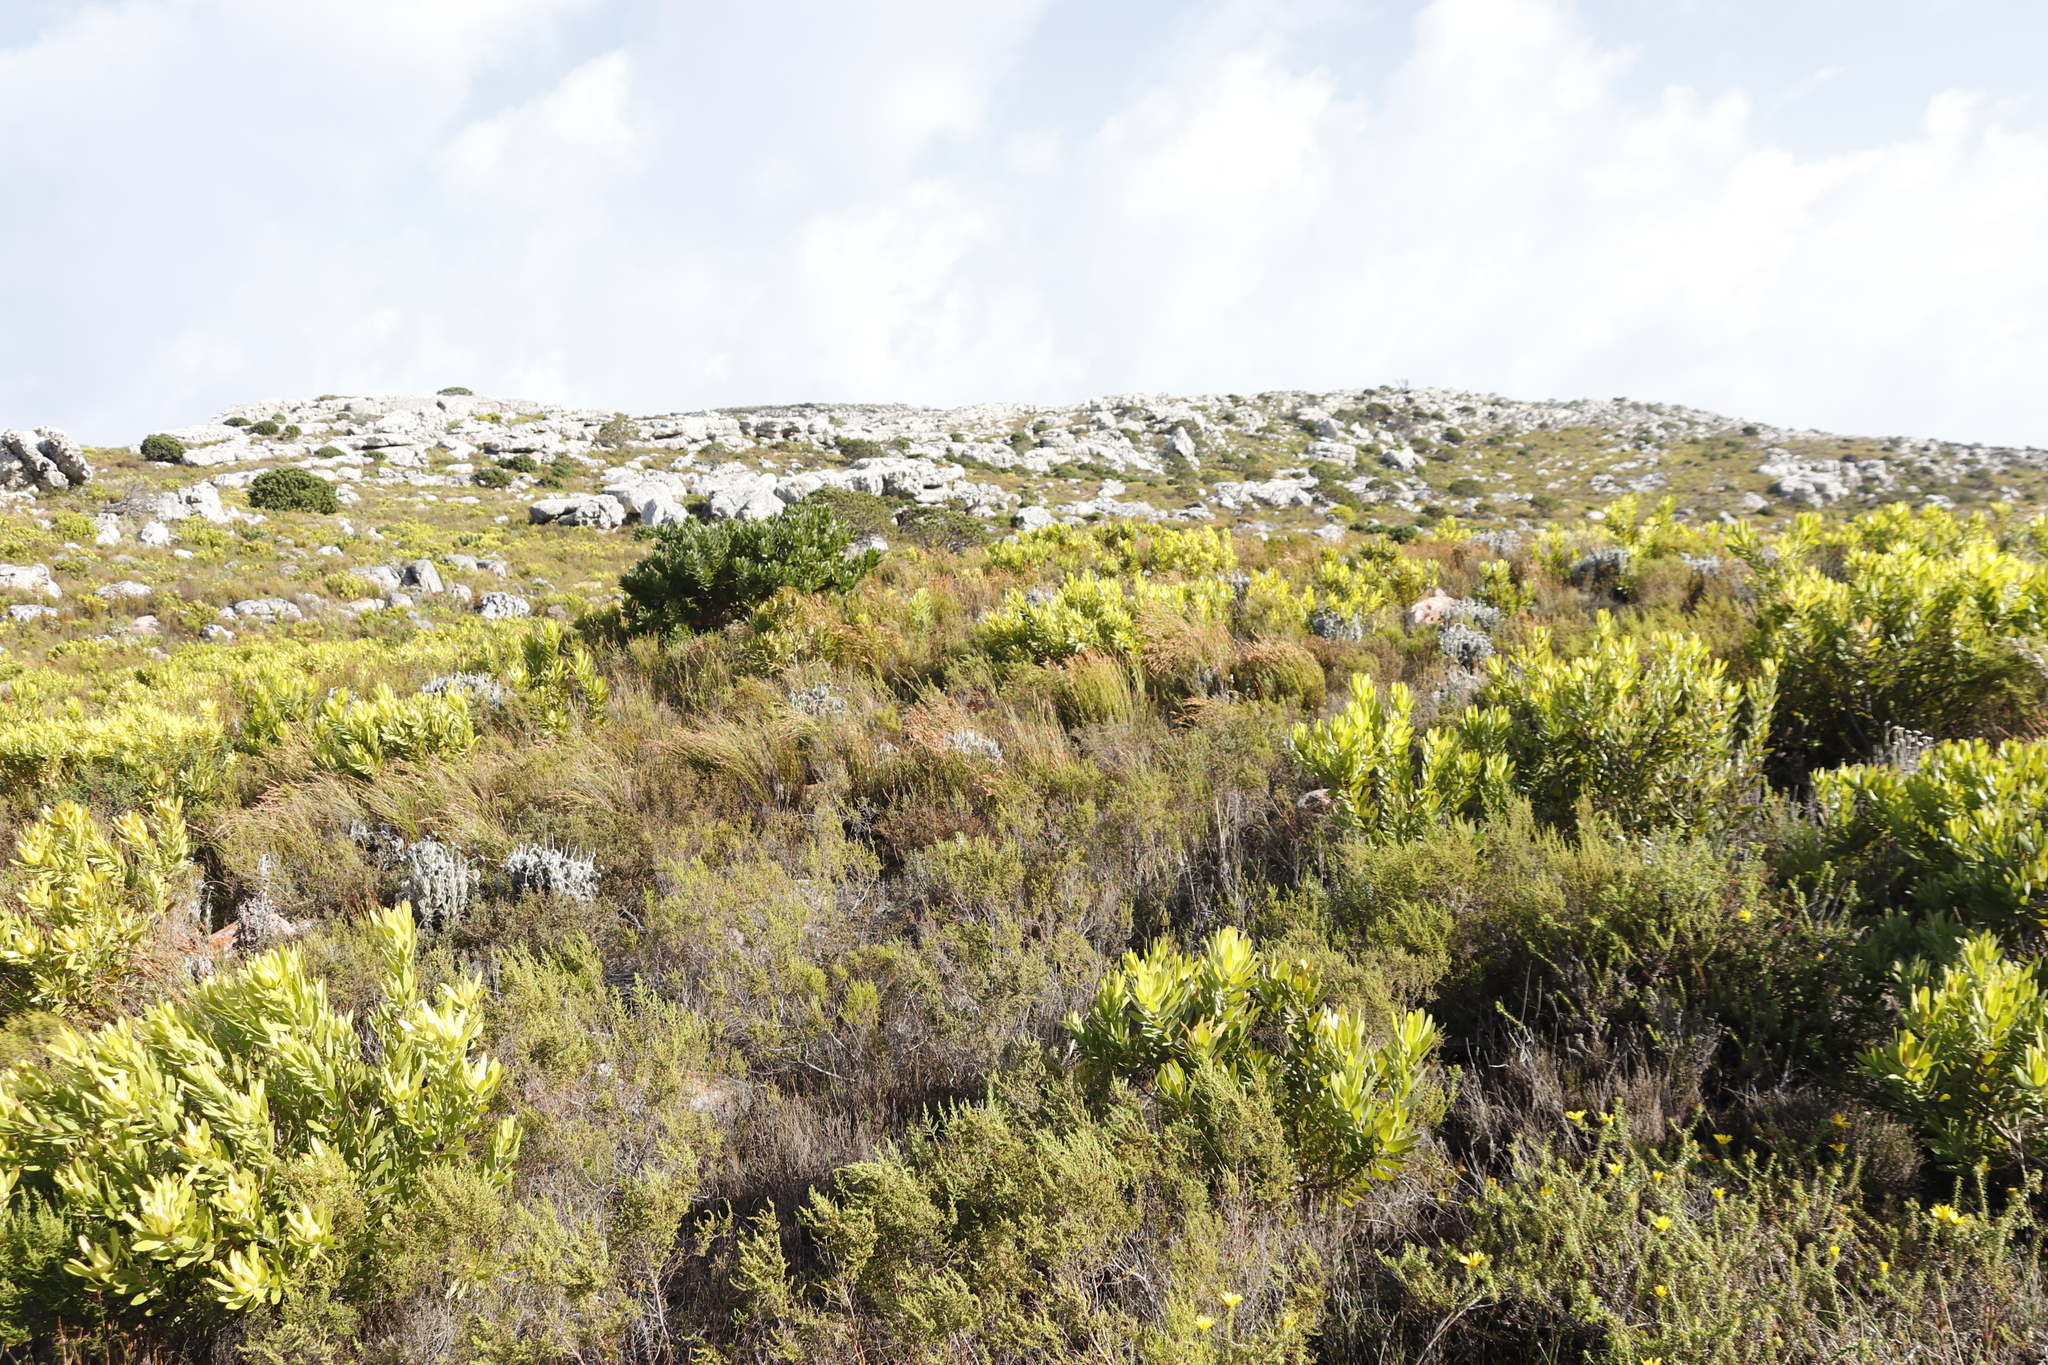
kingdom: Plantae
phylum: Tracheophyta
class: Liliopsida
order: Poales
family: Restionaceae
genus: Elegia
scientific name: Elegia stipularis
